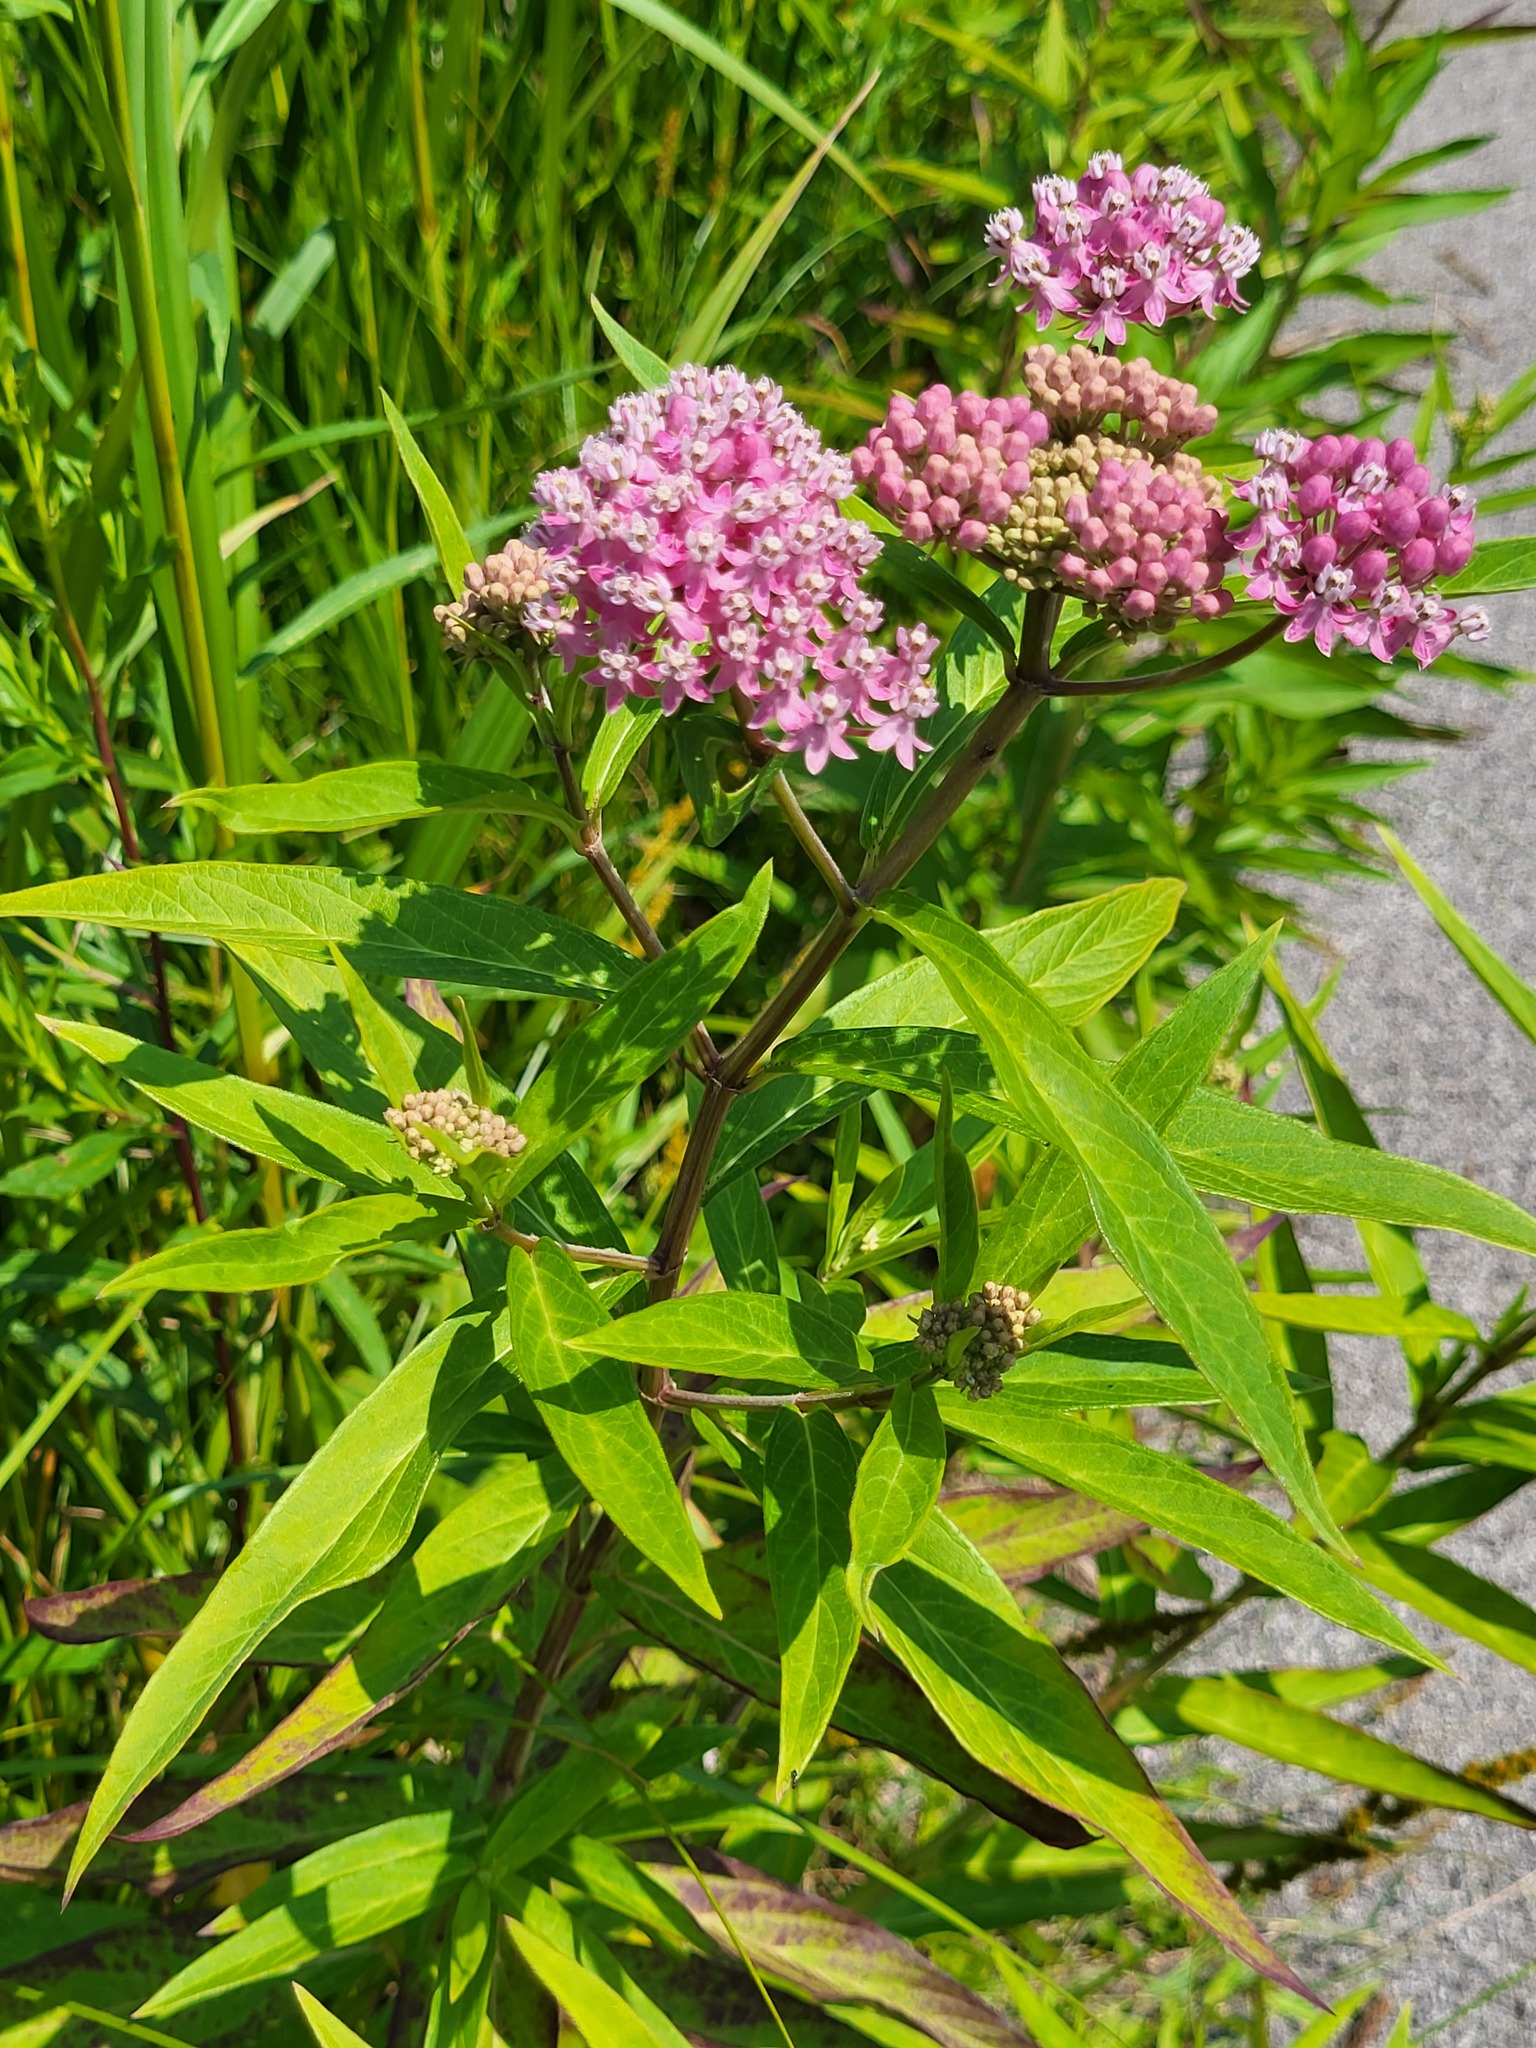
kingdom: Plantae
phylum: Tracheophyta
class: Magnoliopsida
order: Gentianales
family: Apocynaceae
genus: Asclepias
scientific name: Asclepias incarnata
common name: Swamp milkweed
